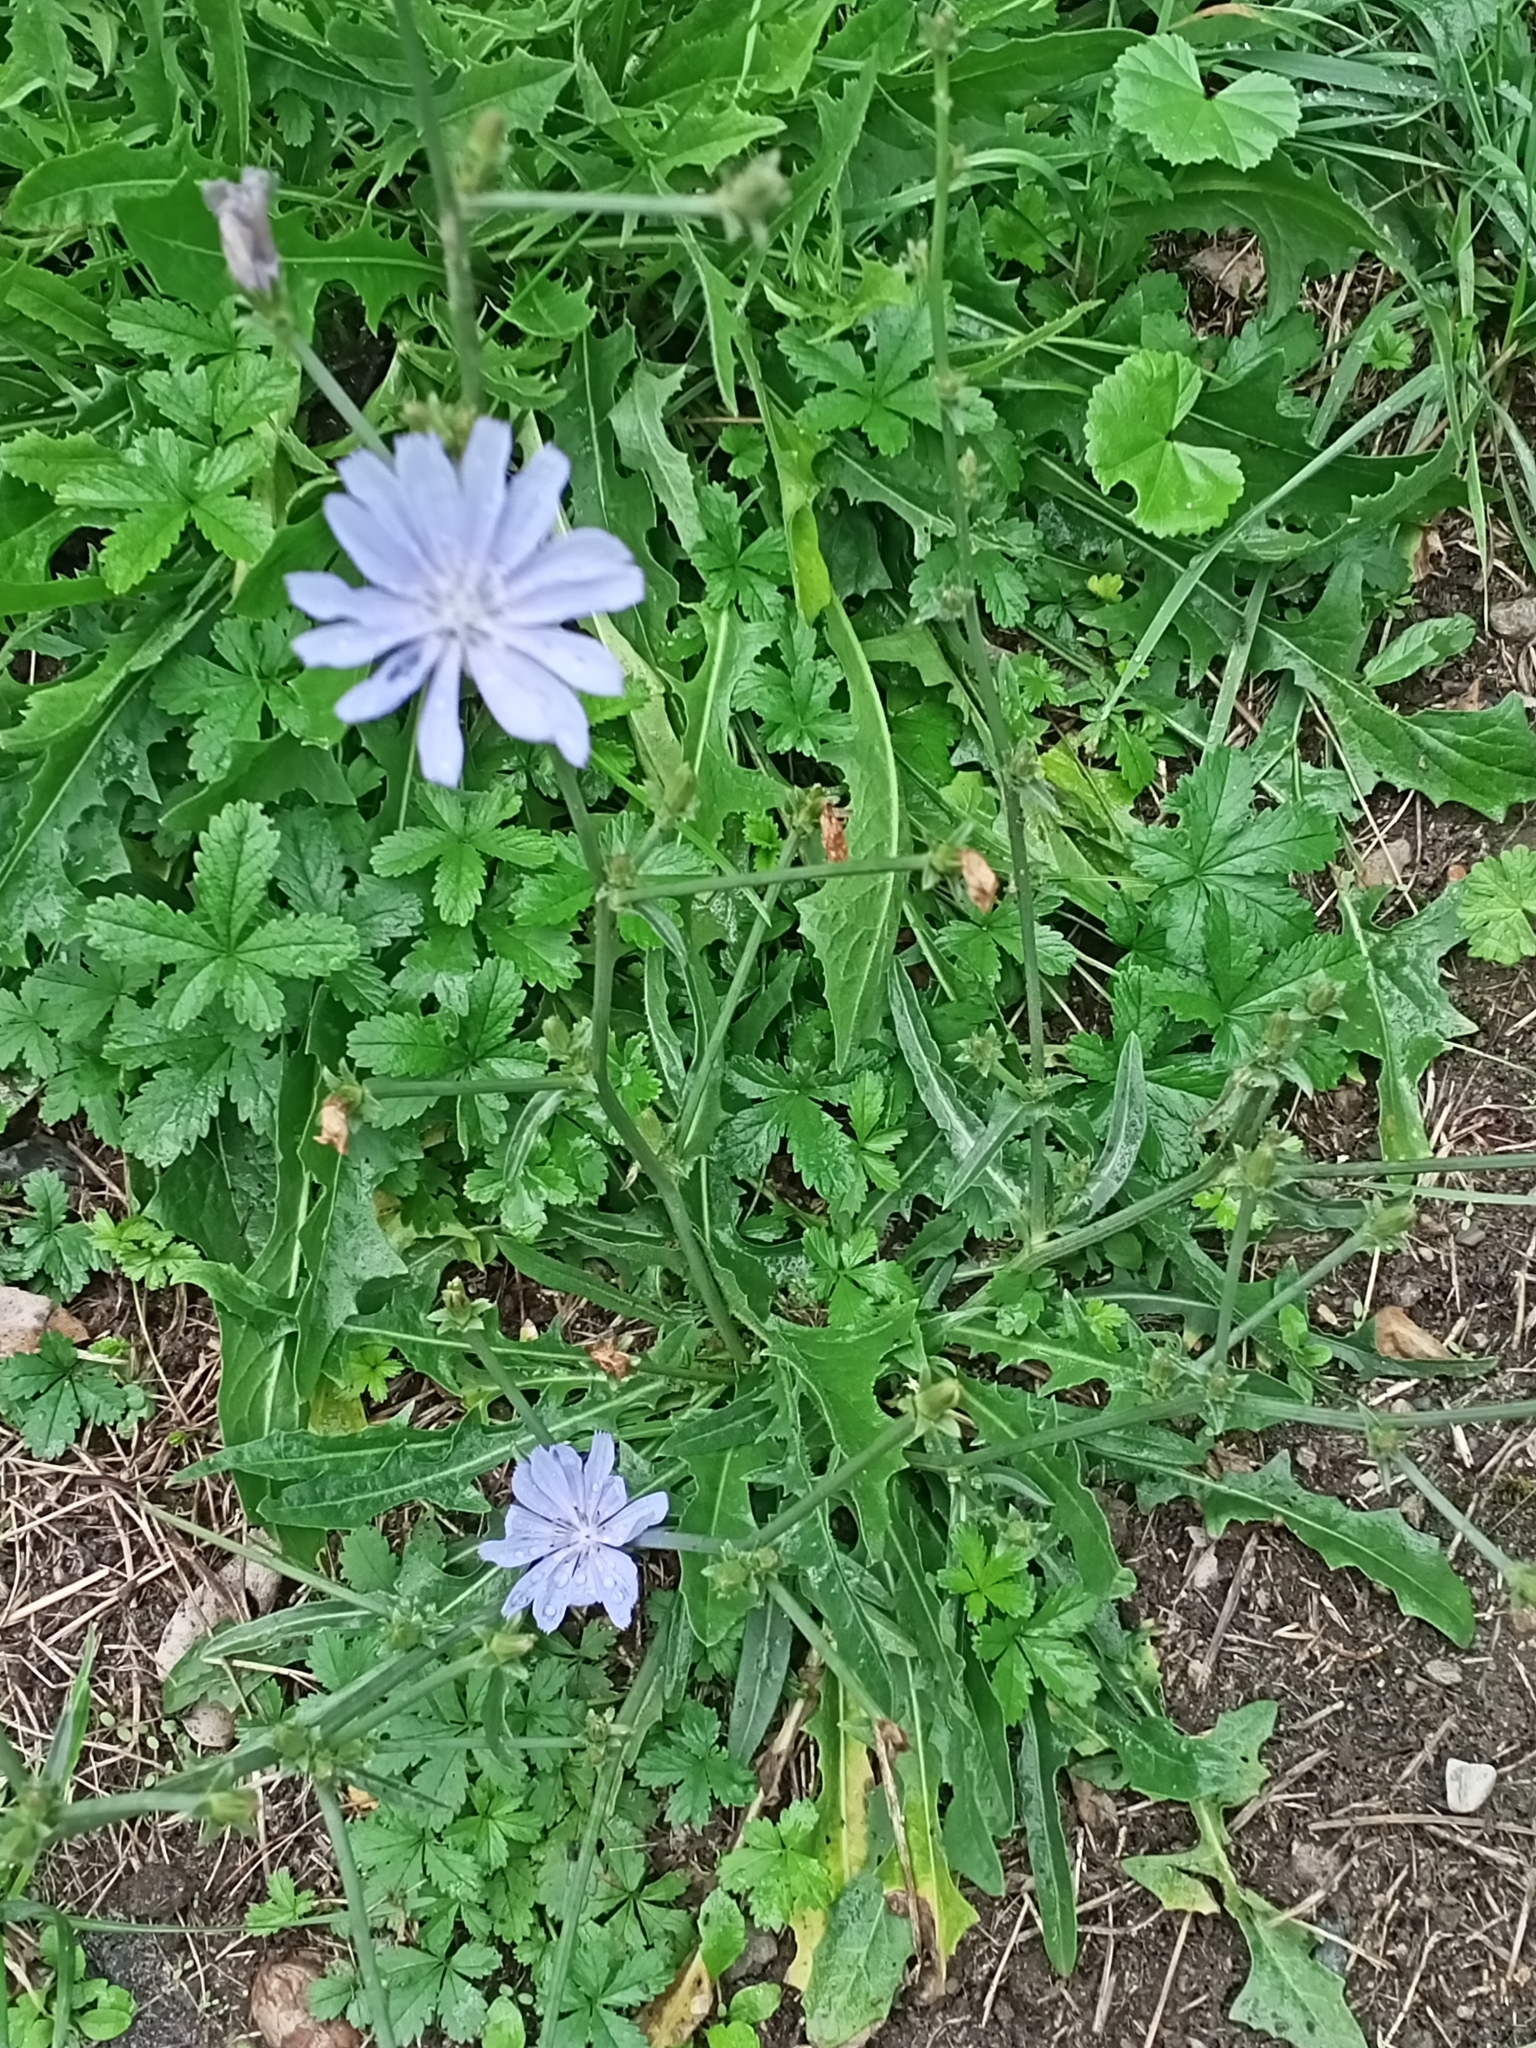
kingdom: Plantae
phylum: Tracheophyta
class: Magnoliopsida
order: Asterales
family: Asteraceae
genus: Cichorium
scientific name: Cichorium intybus
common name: Chicory
